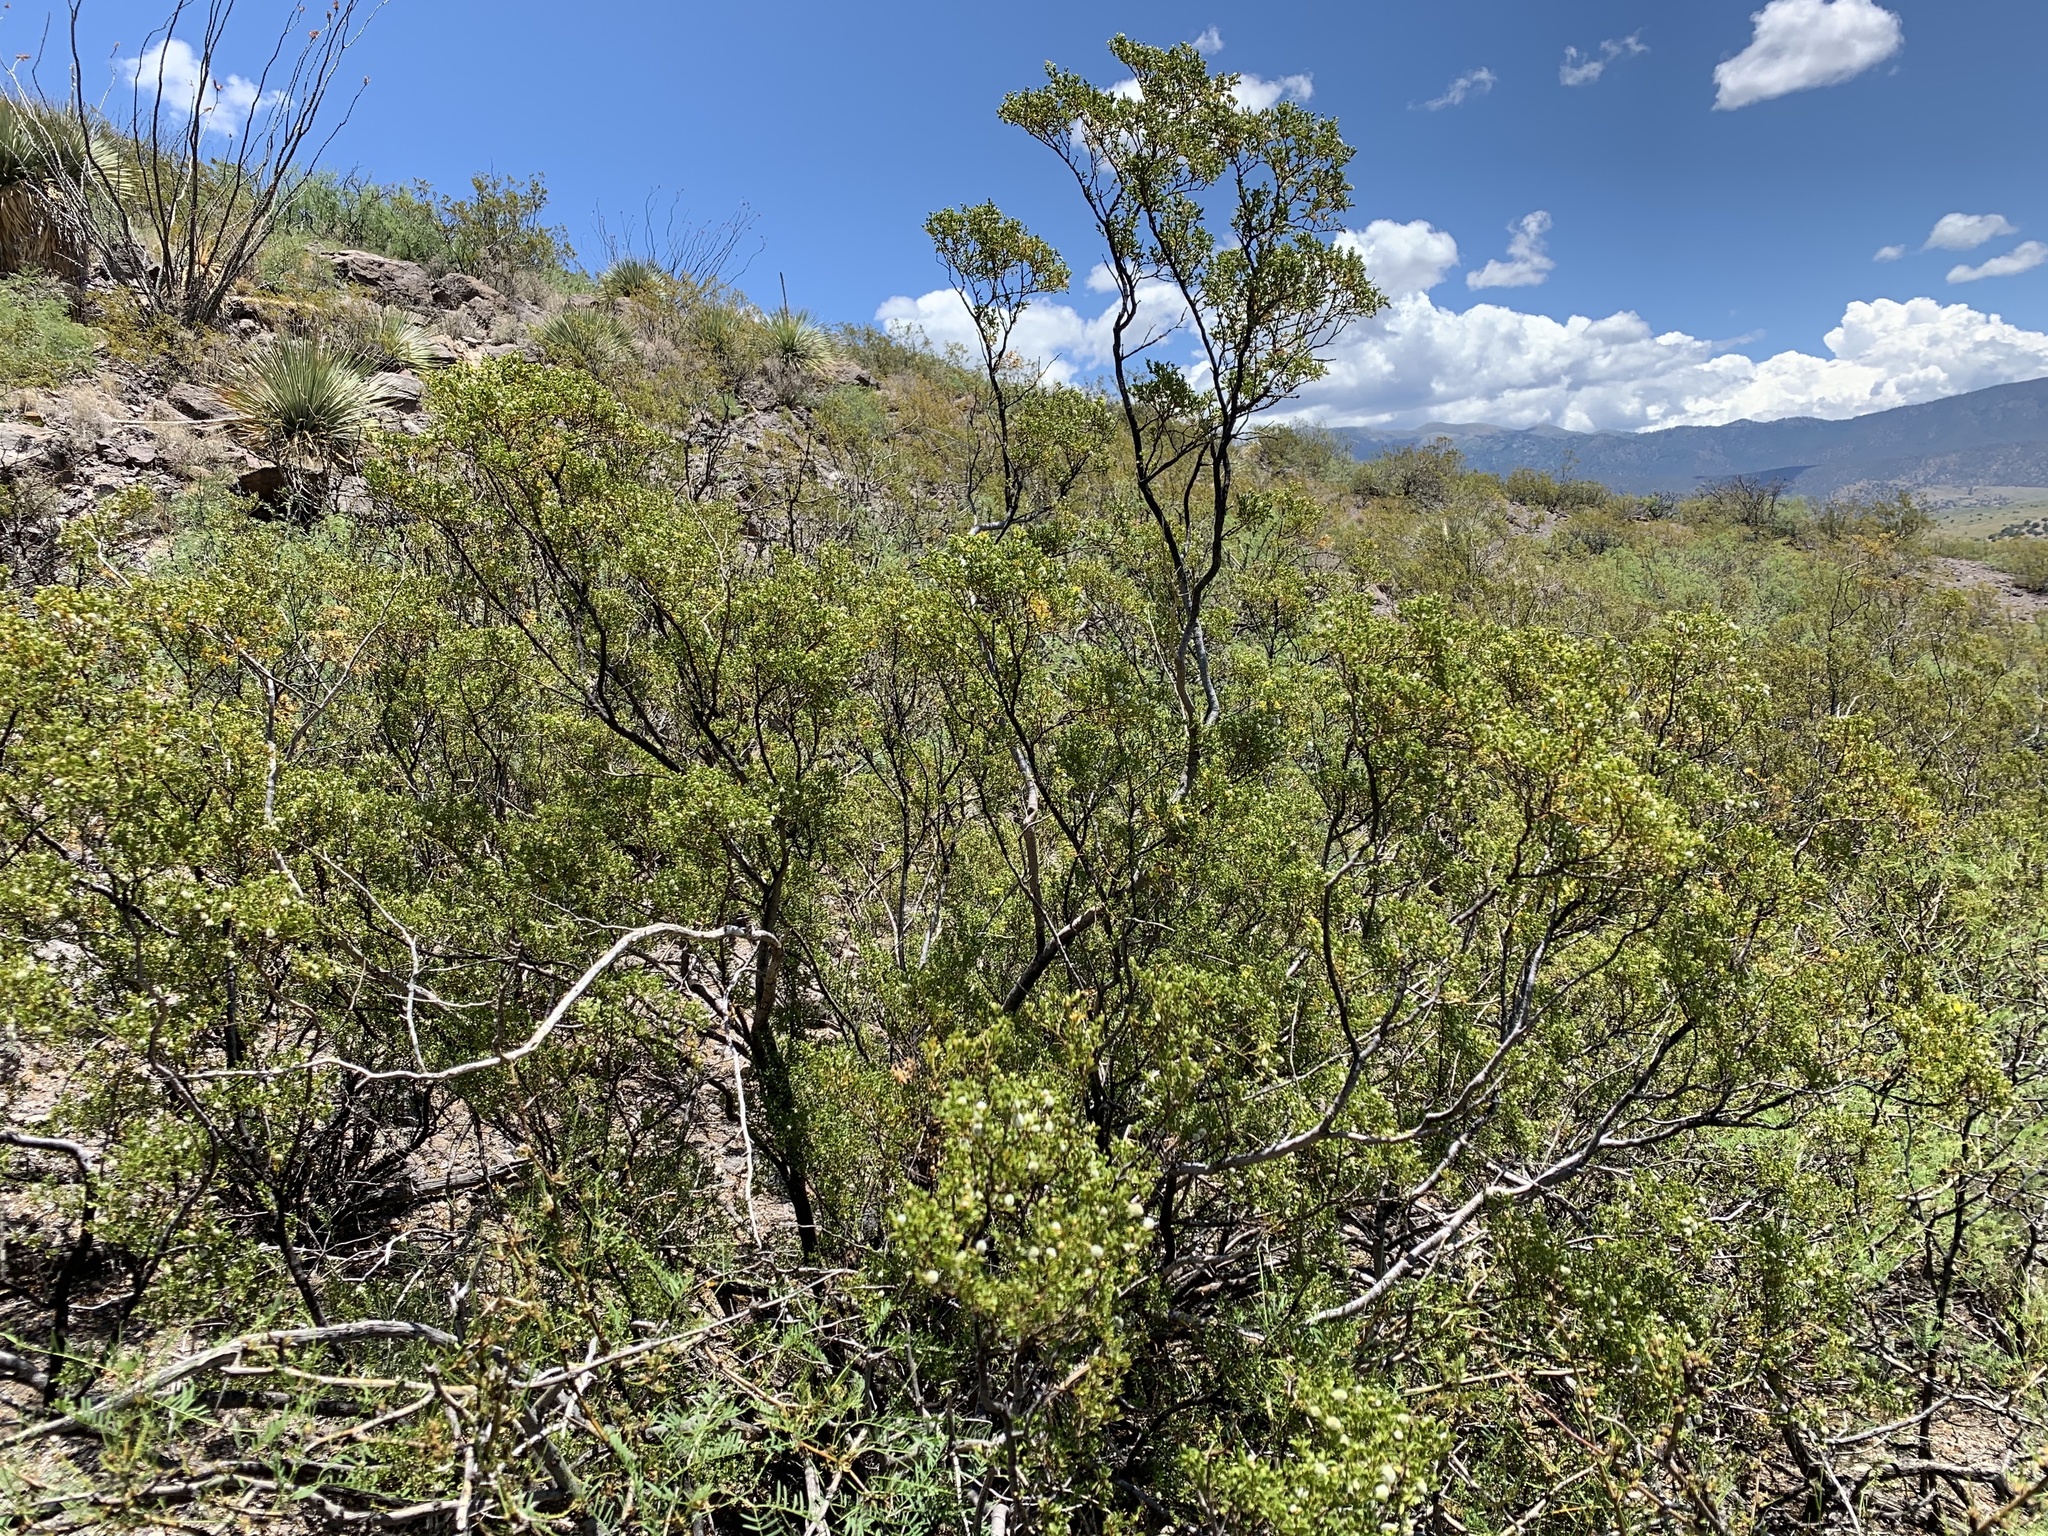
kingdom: Plantae
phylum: Tracheophyta
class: Magnoliopsida
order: Zygophyllales
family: Zygophyllaceae
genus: Larrea
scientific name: Larrea tridentata
